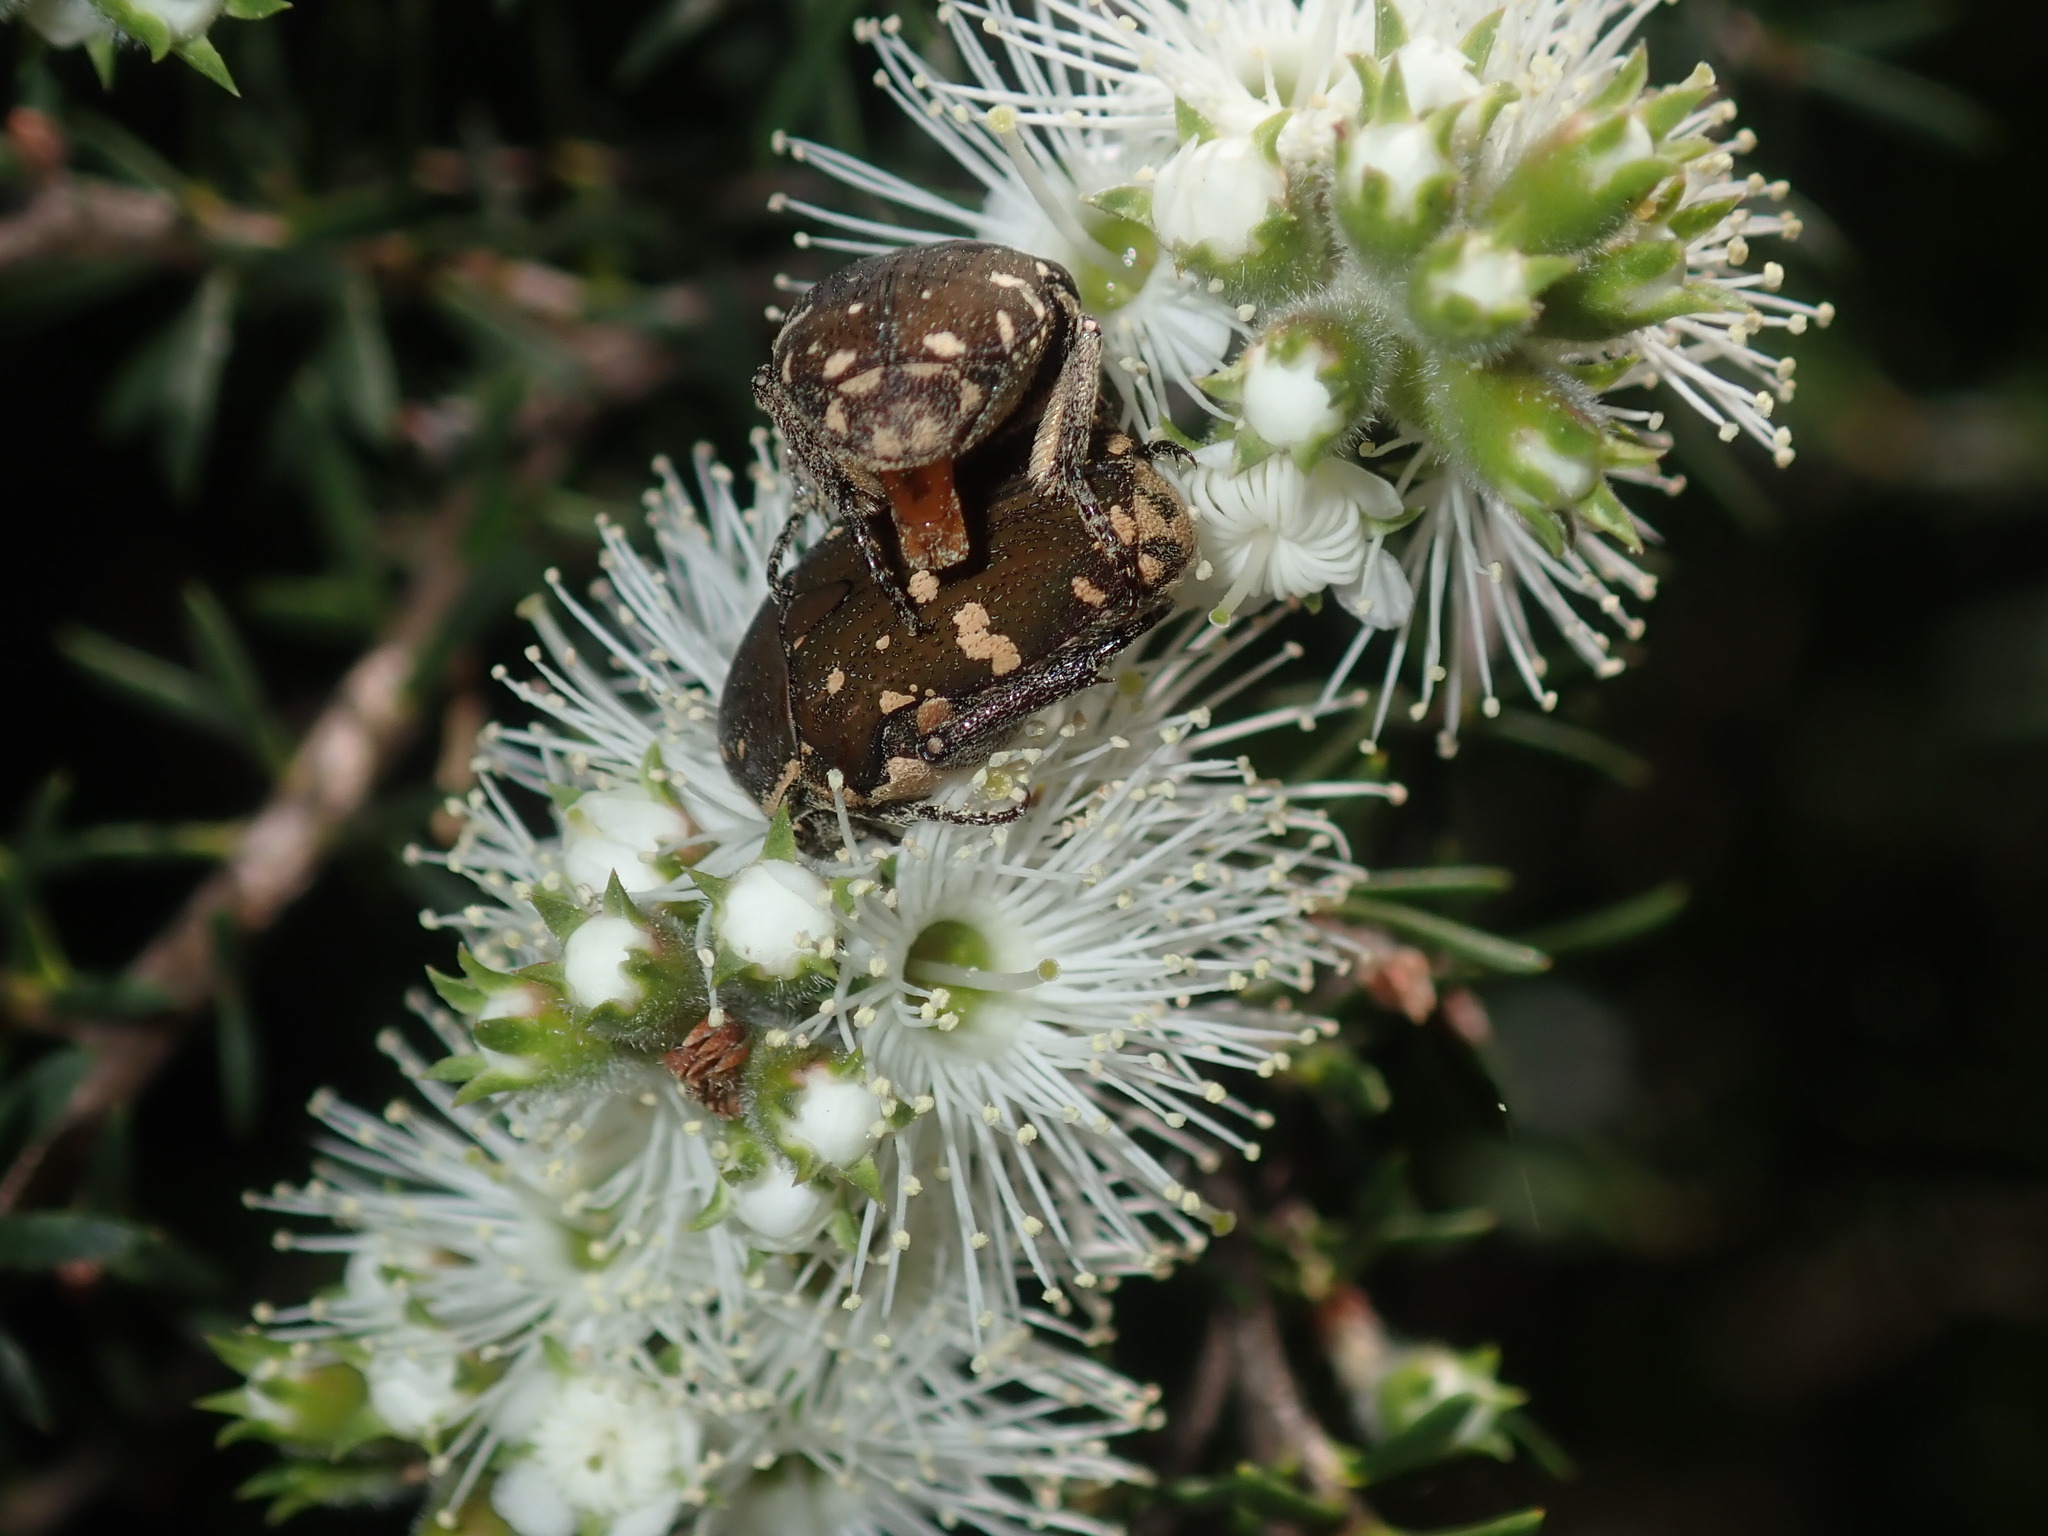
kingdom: Animalia
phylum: Arthropoda
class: Insecta
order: Coleoptera
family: Scarabaeidae
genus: Glycyphana
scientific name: Glycyphana stolata
